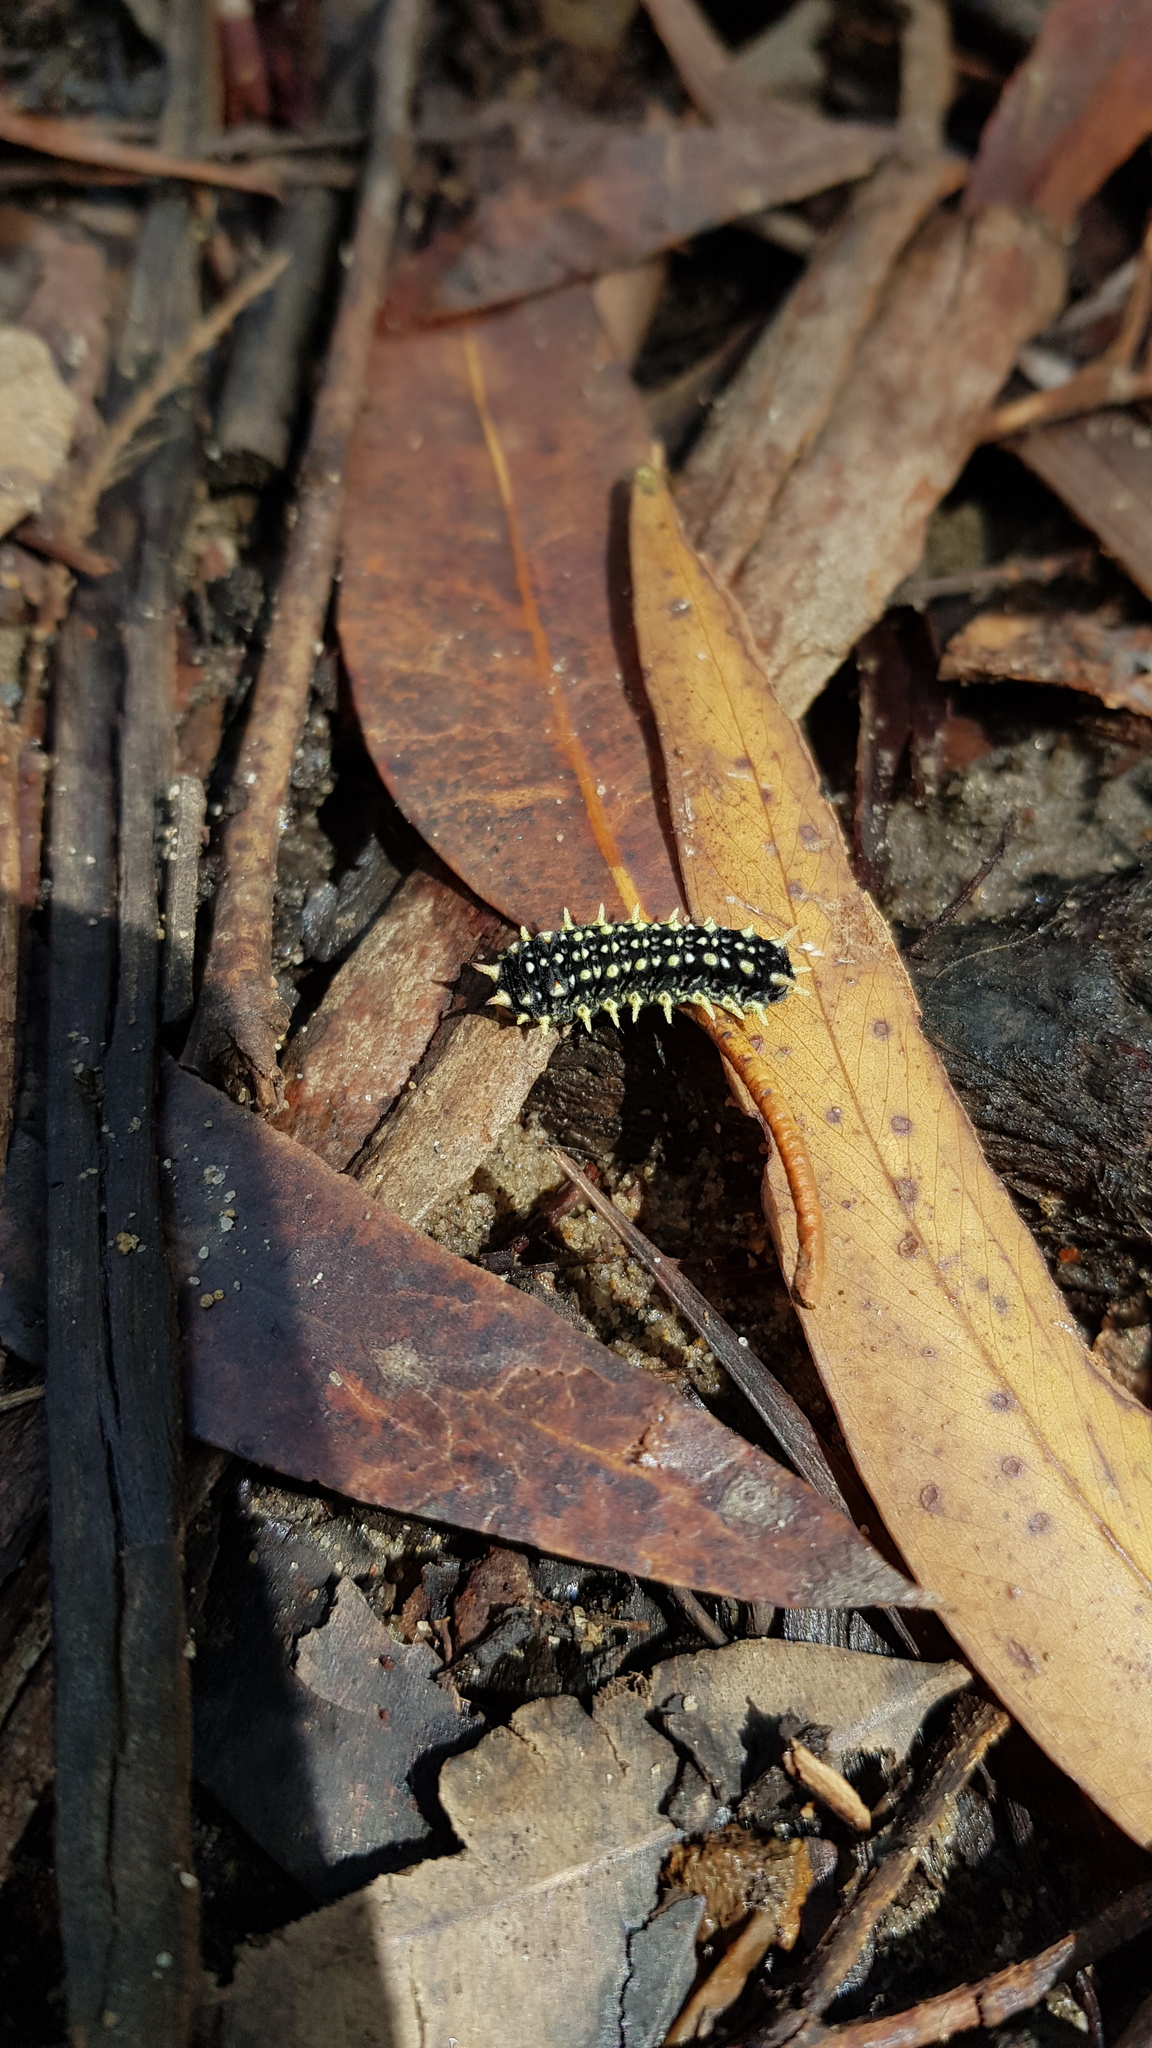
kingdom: Animalia
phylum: Arthropoda
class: Insecta
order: Lepidoptera
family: Limacodidae
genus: Doratifera
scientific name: Doratifera casta
